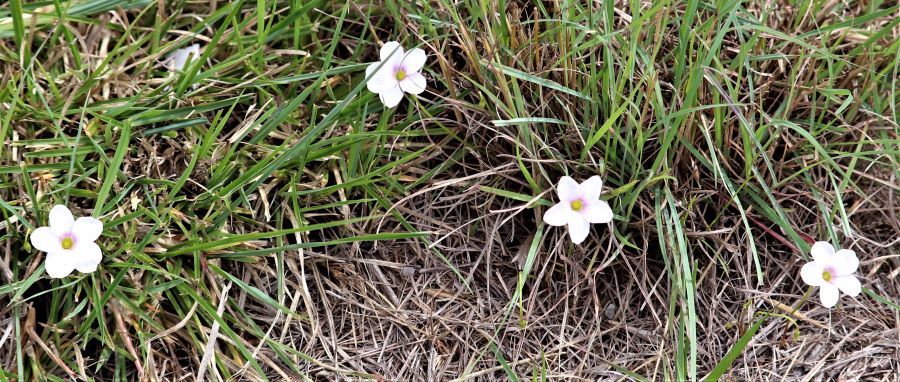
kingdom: Plantae
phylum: Tracheophyta
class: Magnoliopsida
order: Oxalidales
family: Oxalidaceae
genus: Oxalis
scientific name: Oxalis
